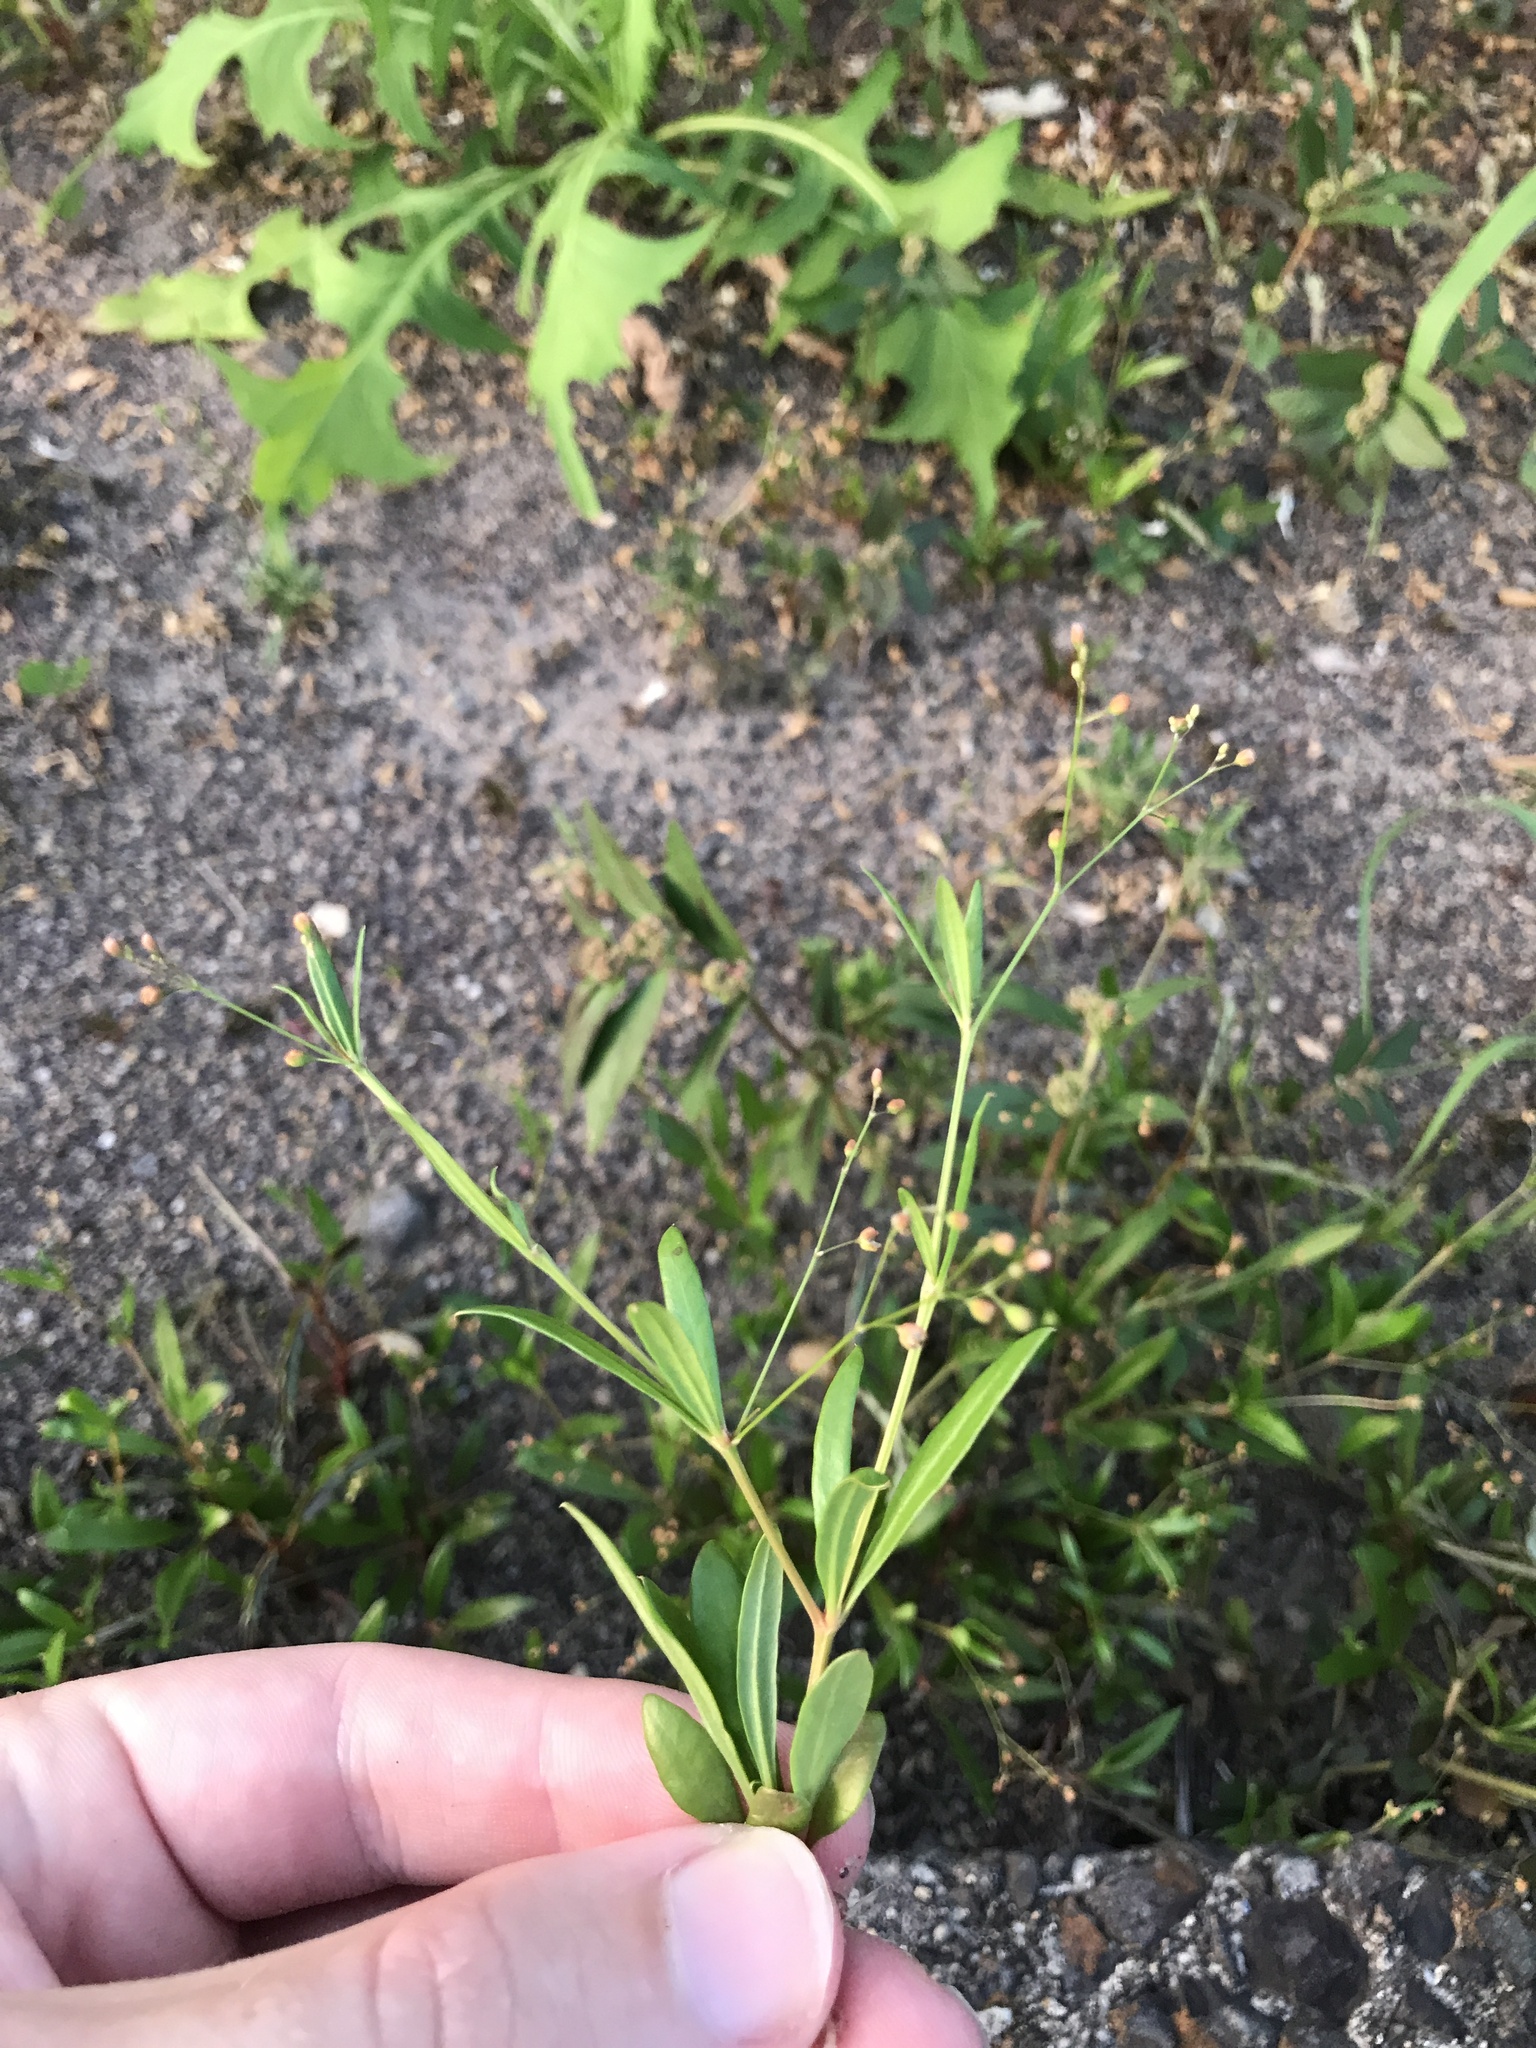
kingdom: Plantae
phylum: Tracheophyta
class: Magnoliopsida
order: Caryophyllales
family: Molluginaceae
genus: Trigastrotheca
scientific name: Trigastrotheca stricta
